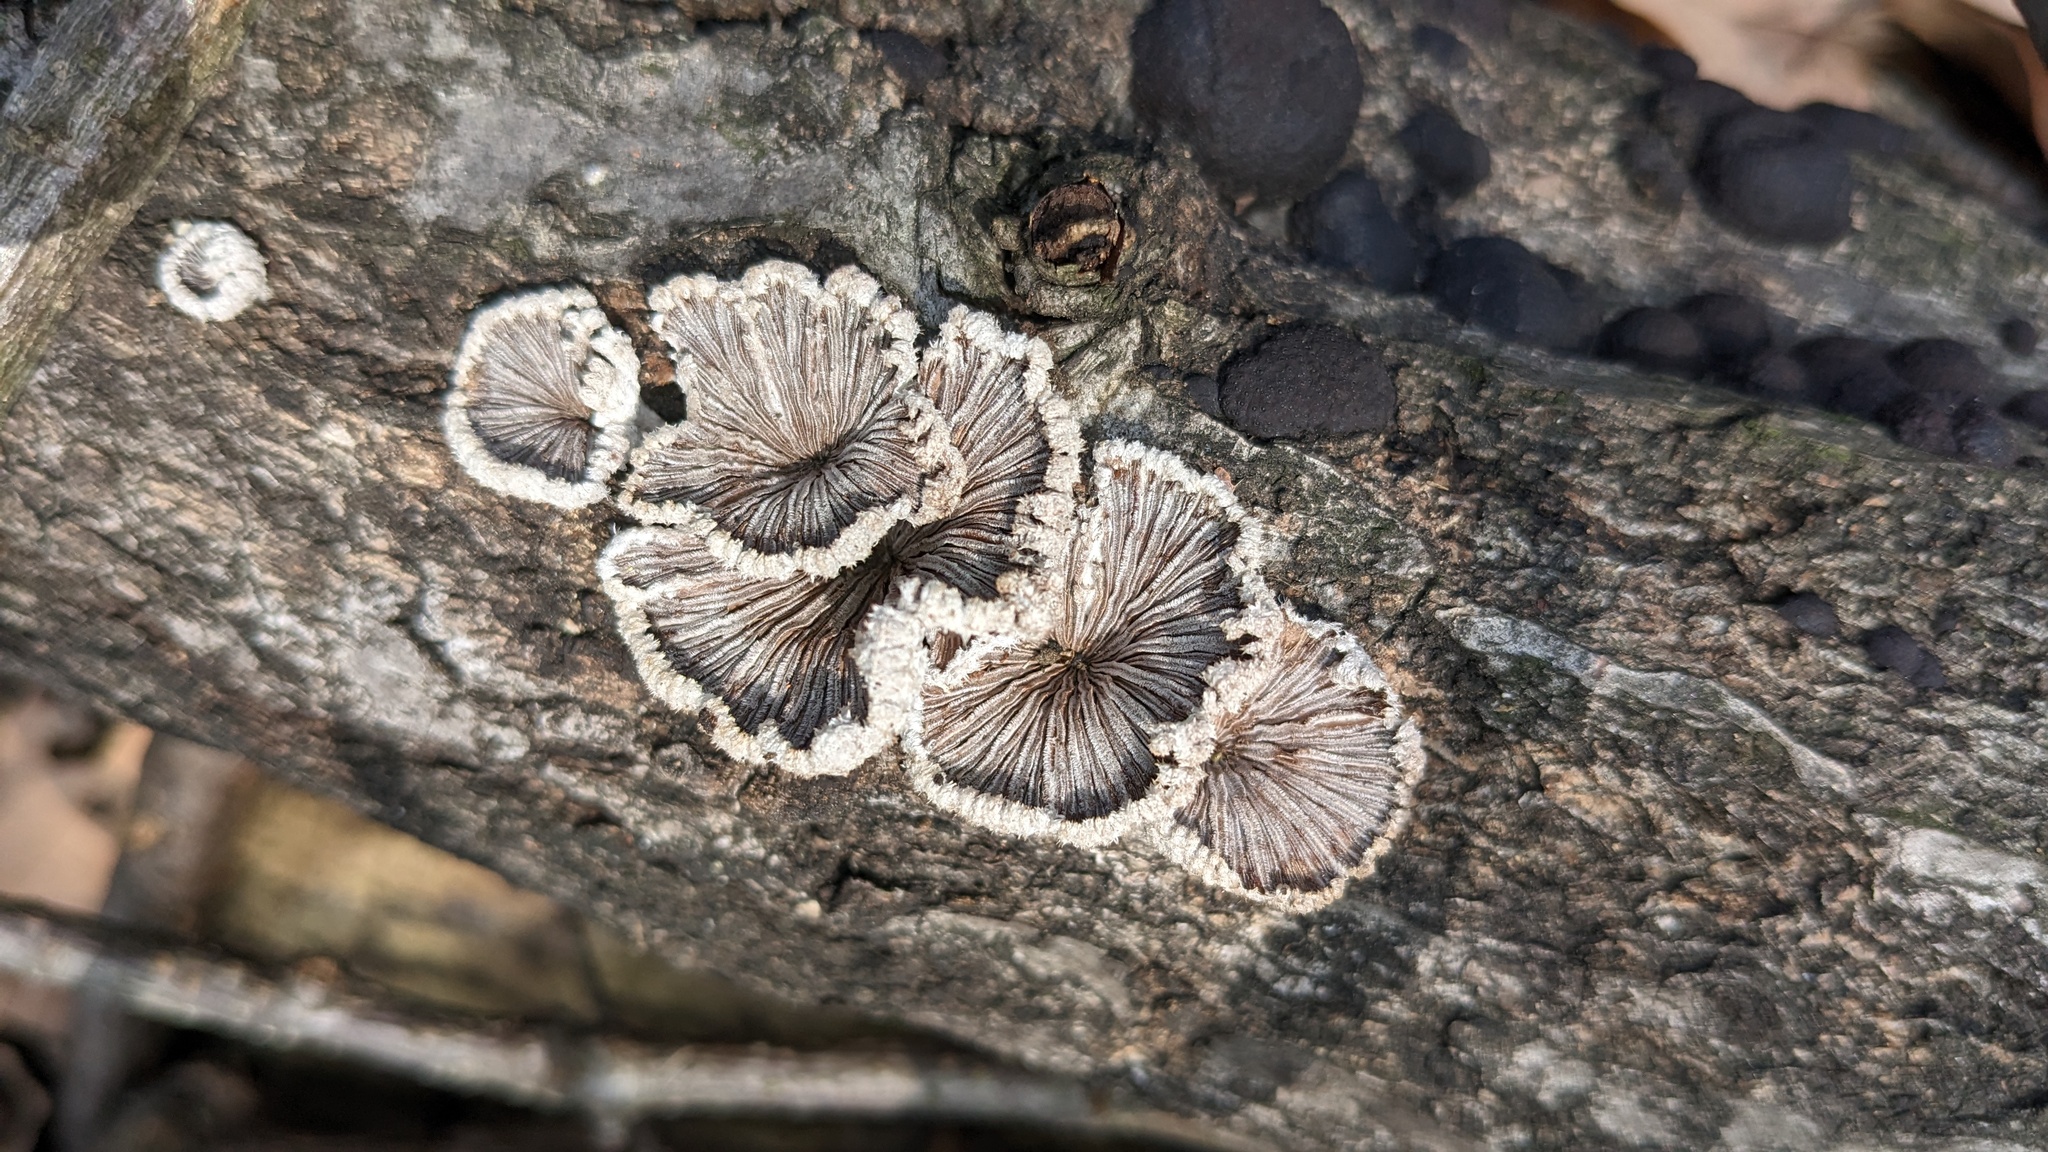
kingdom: Fungi
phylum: Basidiomycota
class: Agaricomycetes
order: Agaricales
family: Schizophyllaceae
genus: Schizophyllum
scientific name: Schizophyllum commune
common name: Common porecrust
